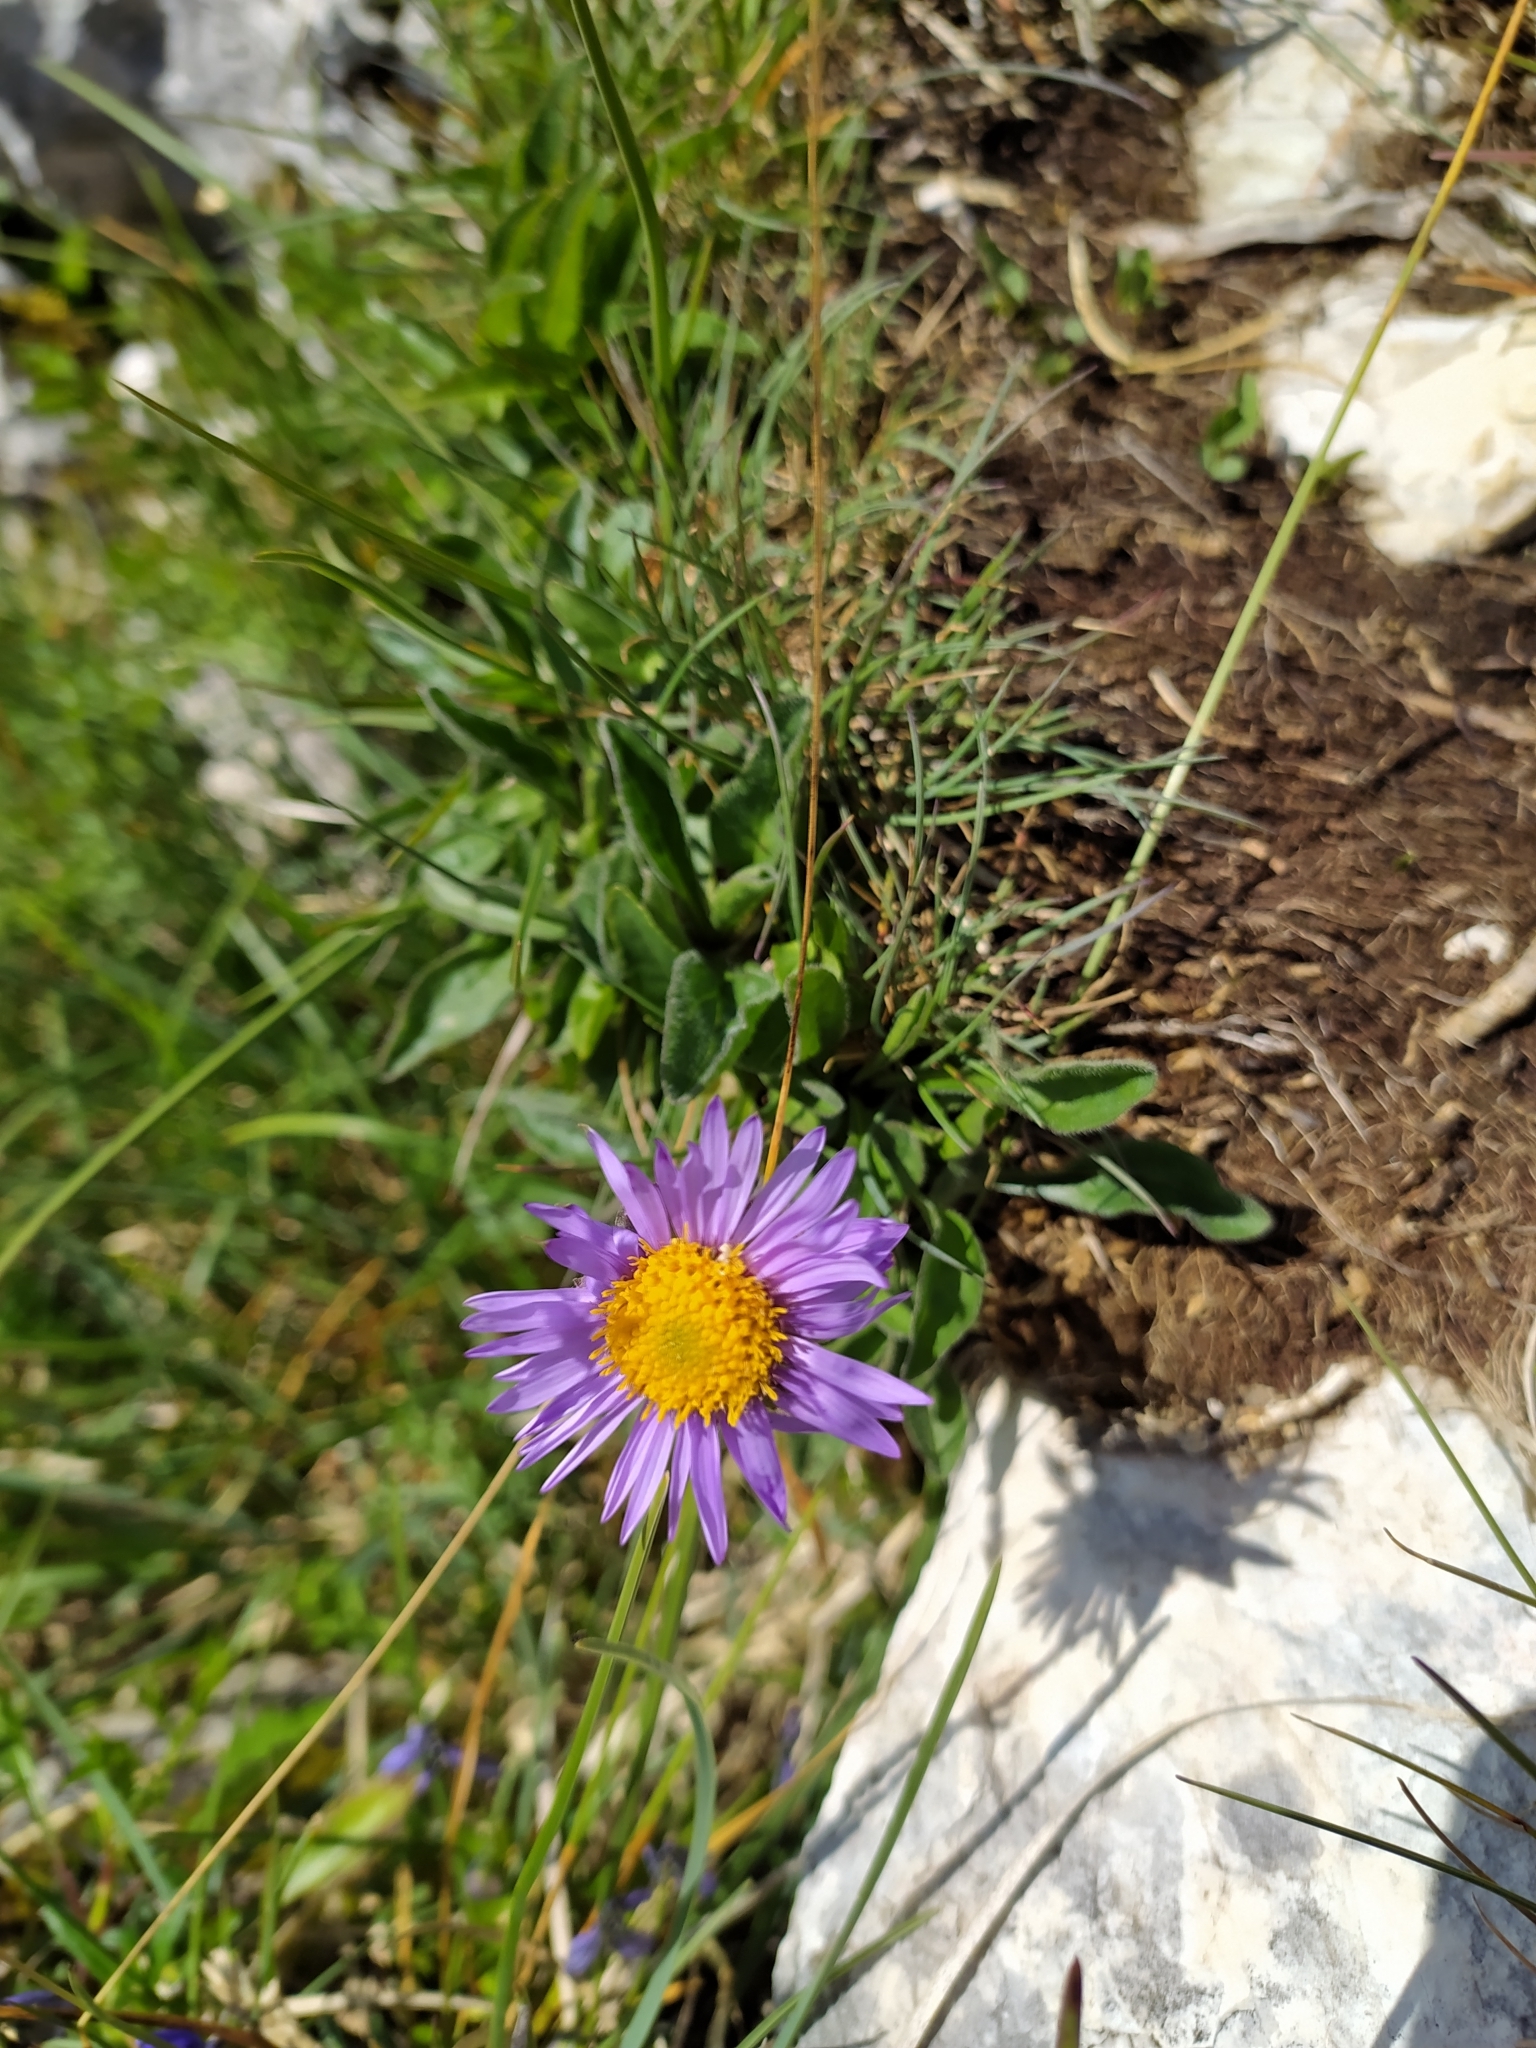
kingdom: Plantae
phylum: Tracheophyta
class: Magnoliopsida
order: Asterales
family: Asteraceae
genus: Aster
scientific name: Aster alpinus
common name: Alpine aster
